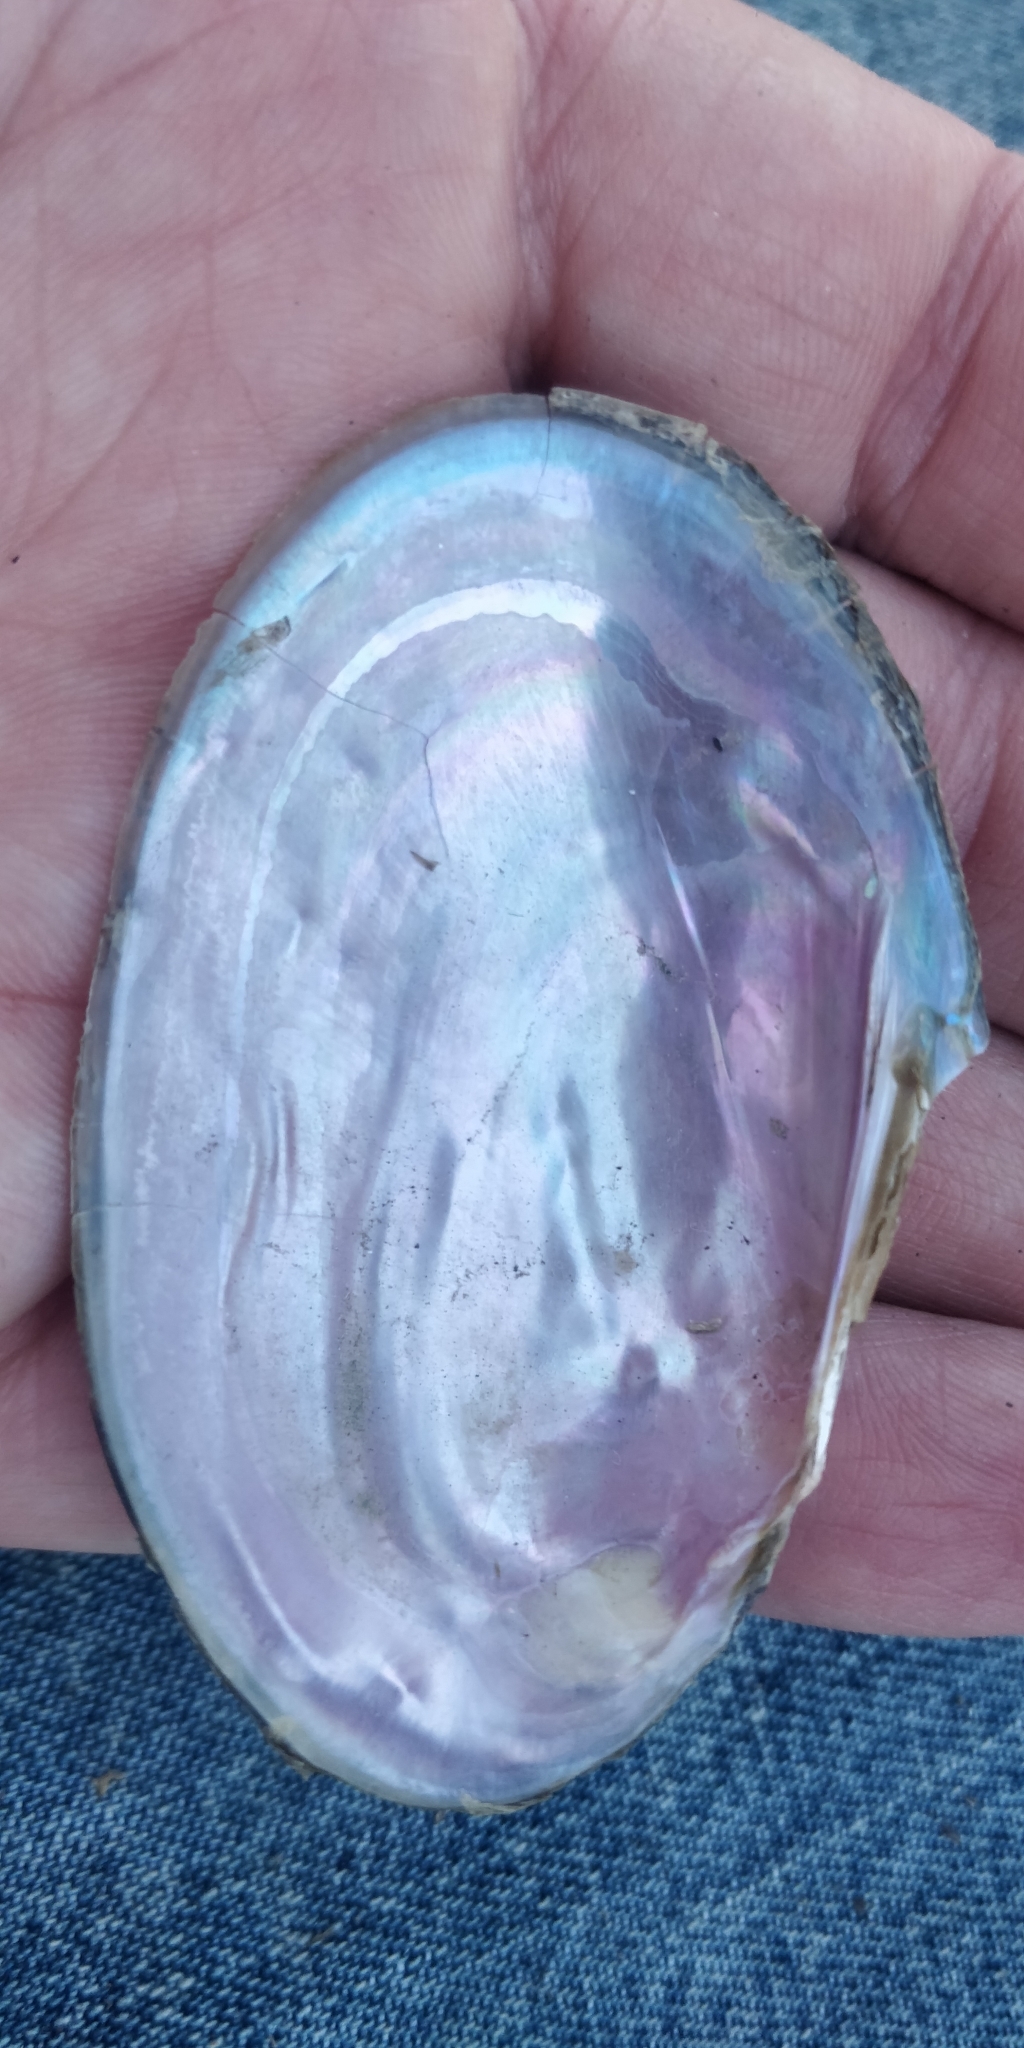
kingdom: Animalia
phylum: Mollusca
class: Bivalvia
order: Unionida
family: Unionidae
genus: Potamilus
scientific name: Potamilus ohiensis
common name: Pink papershell
